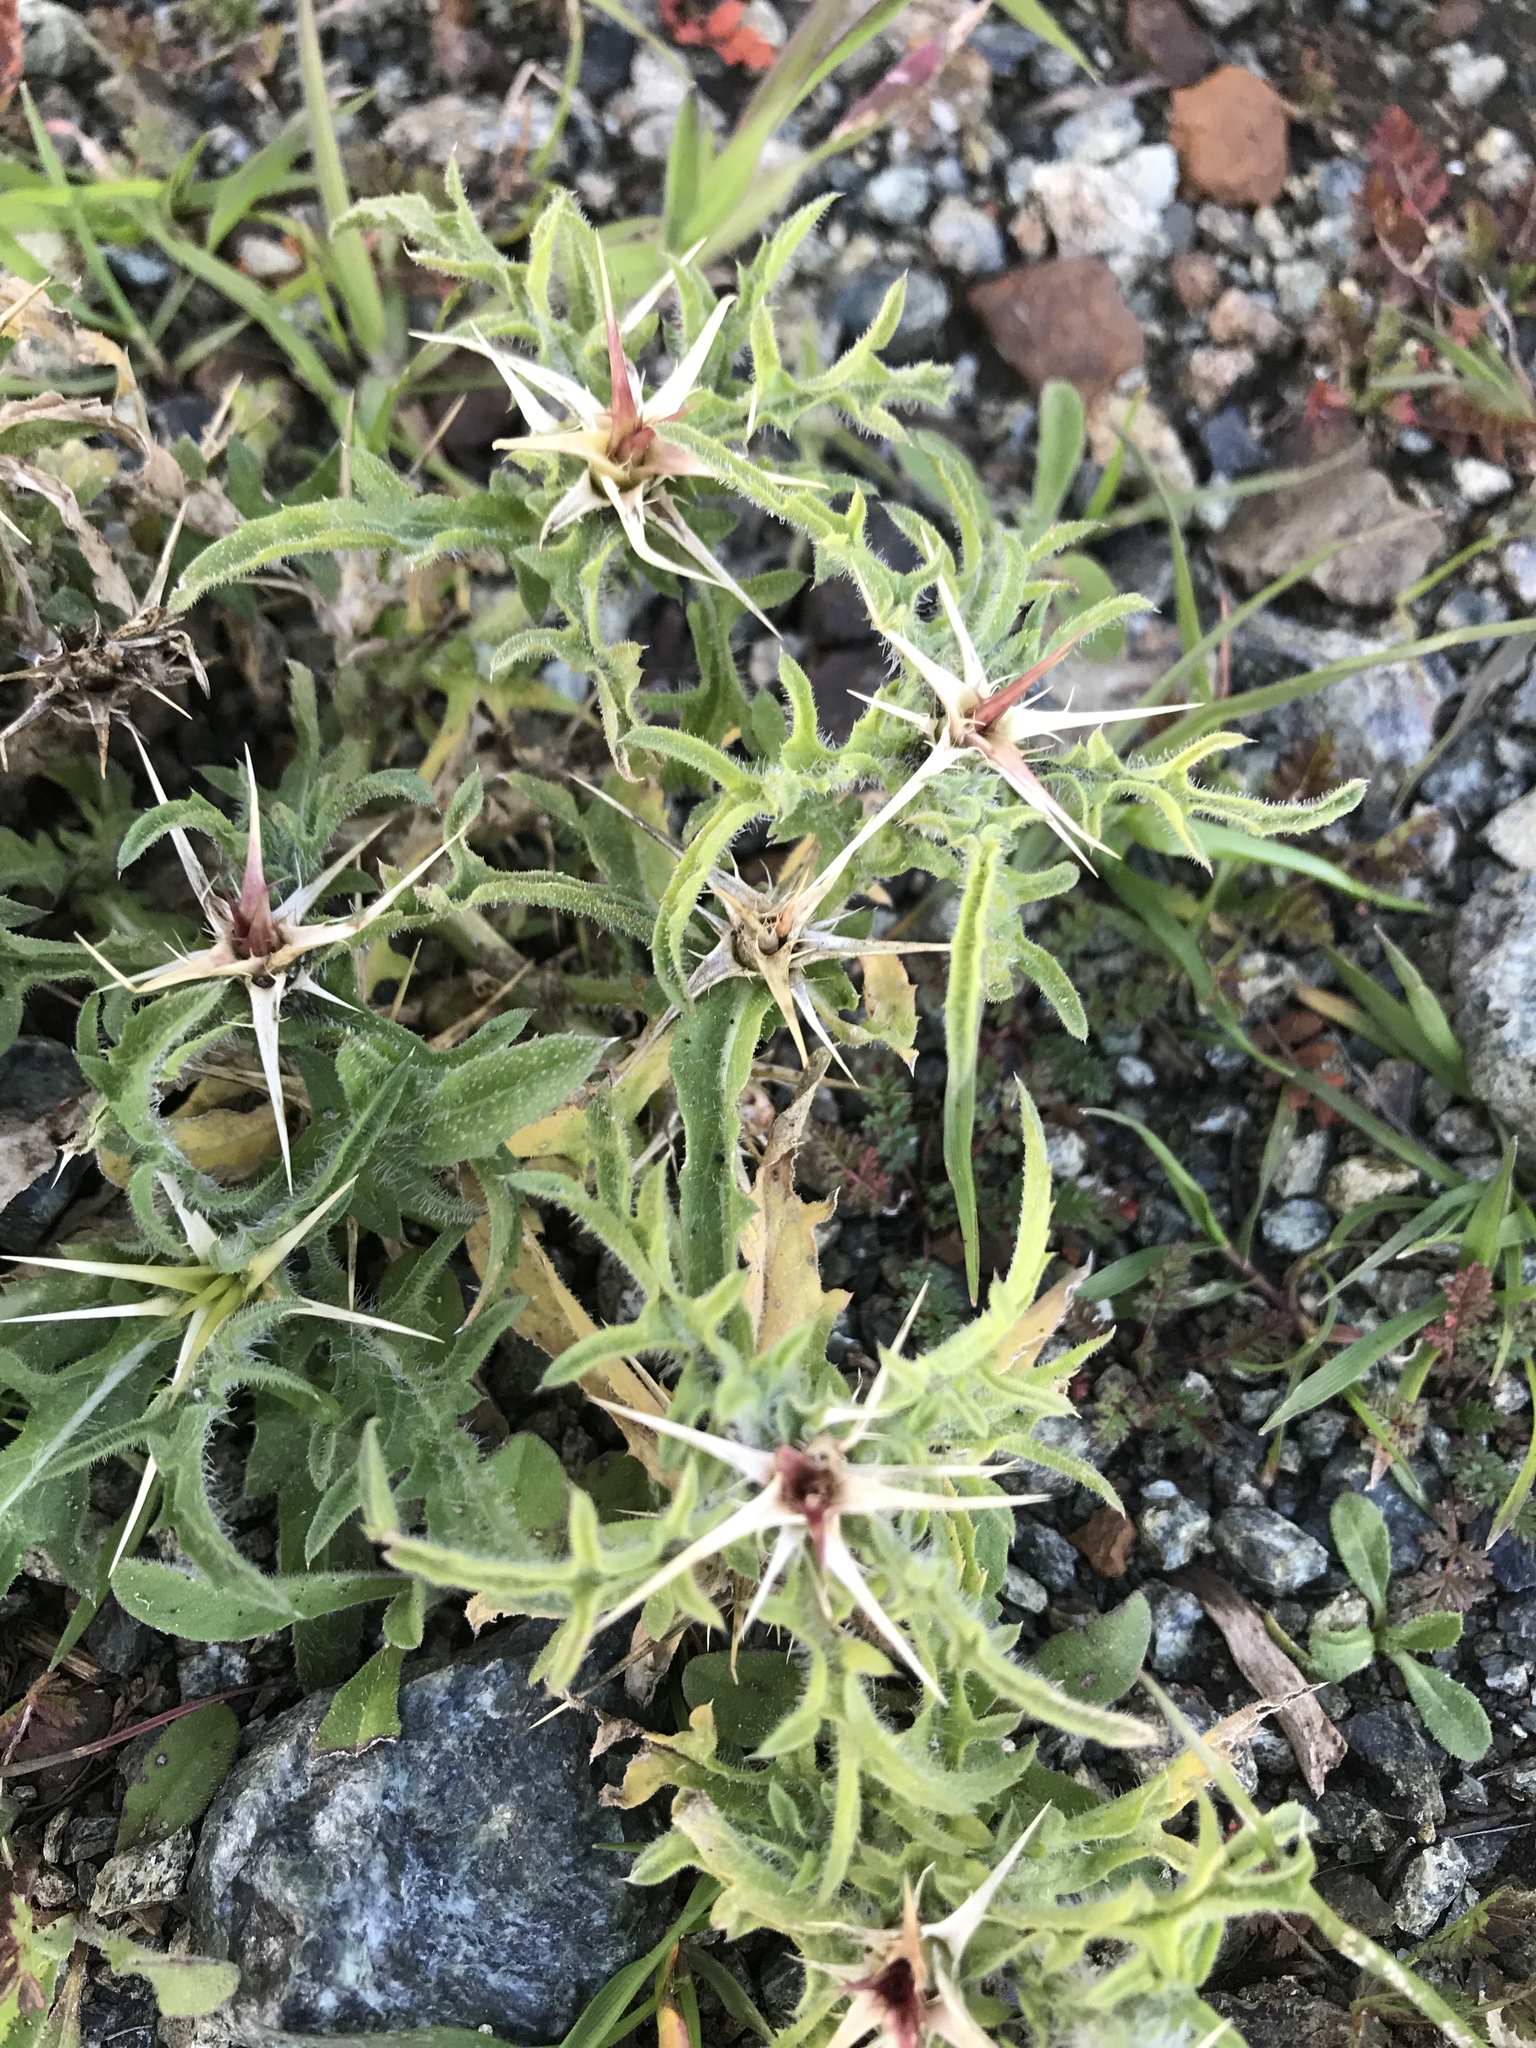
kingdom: Plantae
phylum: Tracheophyta
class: Magnoliopsida
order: Asterales
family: Asteraceae
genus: Centaurea
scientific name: Centaurea calcitrapa
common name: Red star-thistle
